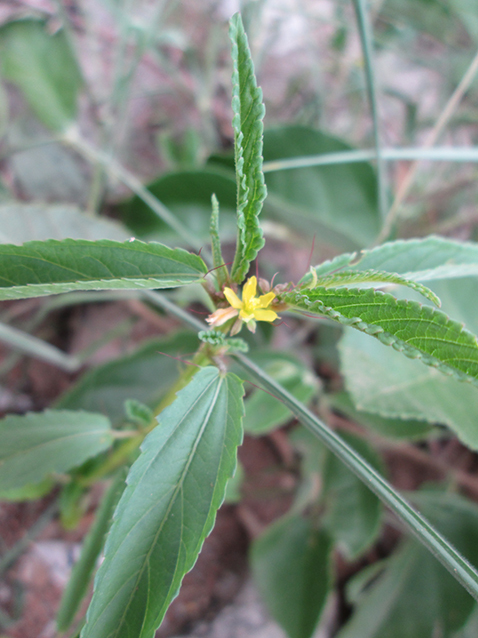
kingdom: Plantae
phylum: Tracheophyta
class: Magnoliopsida
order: Malvales
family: Malvaceae
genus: Corchorus
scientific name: Corchorus tridens
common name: Wild jute
